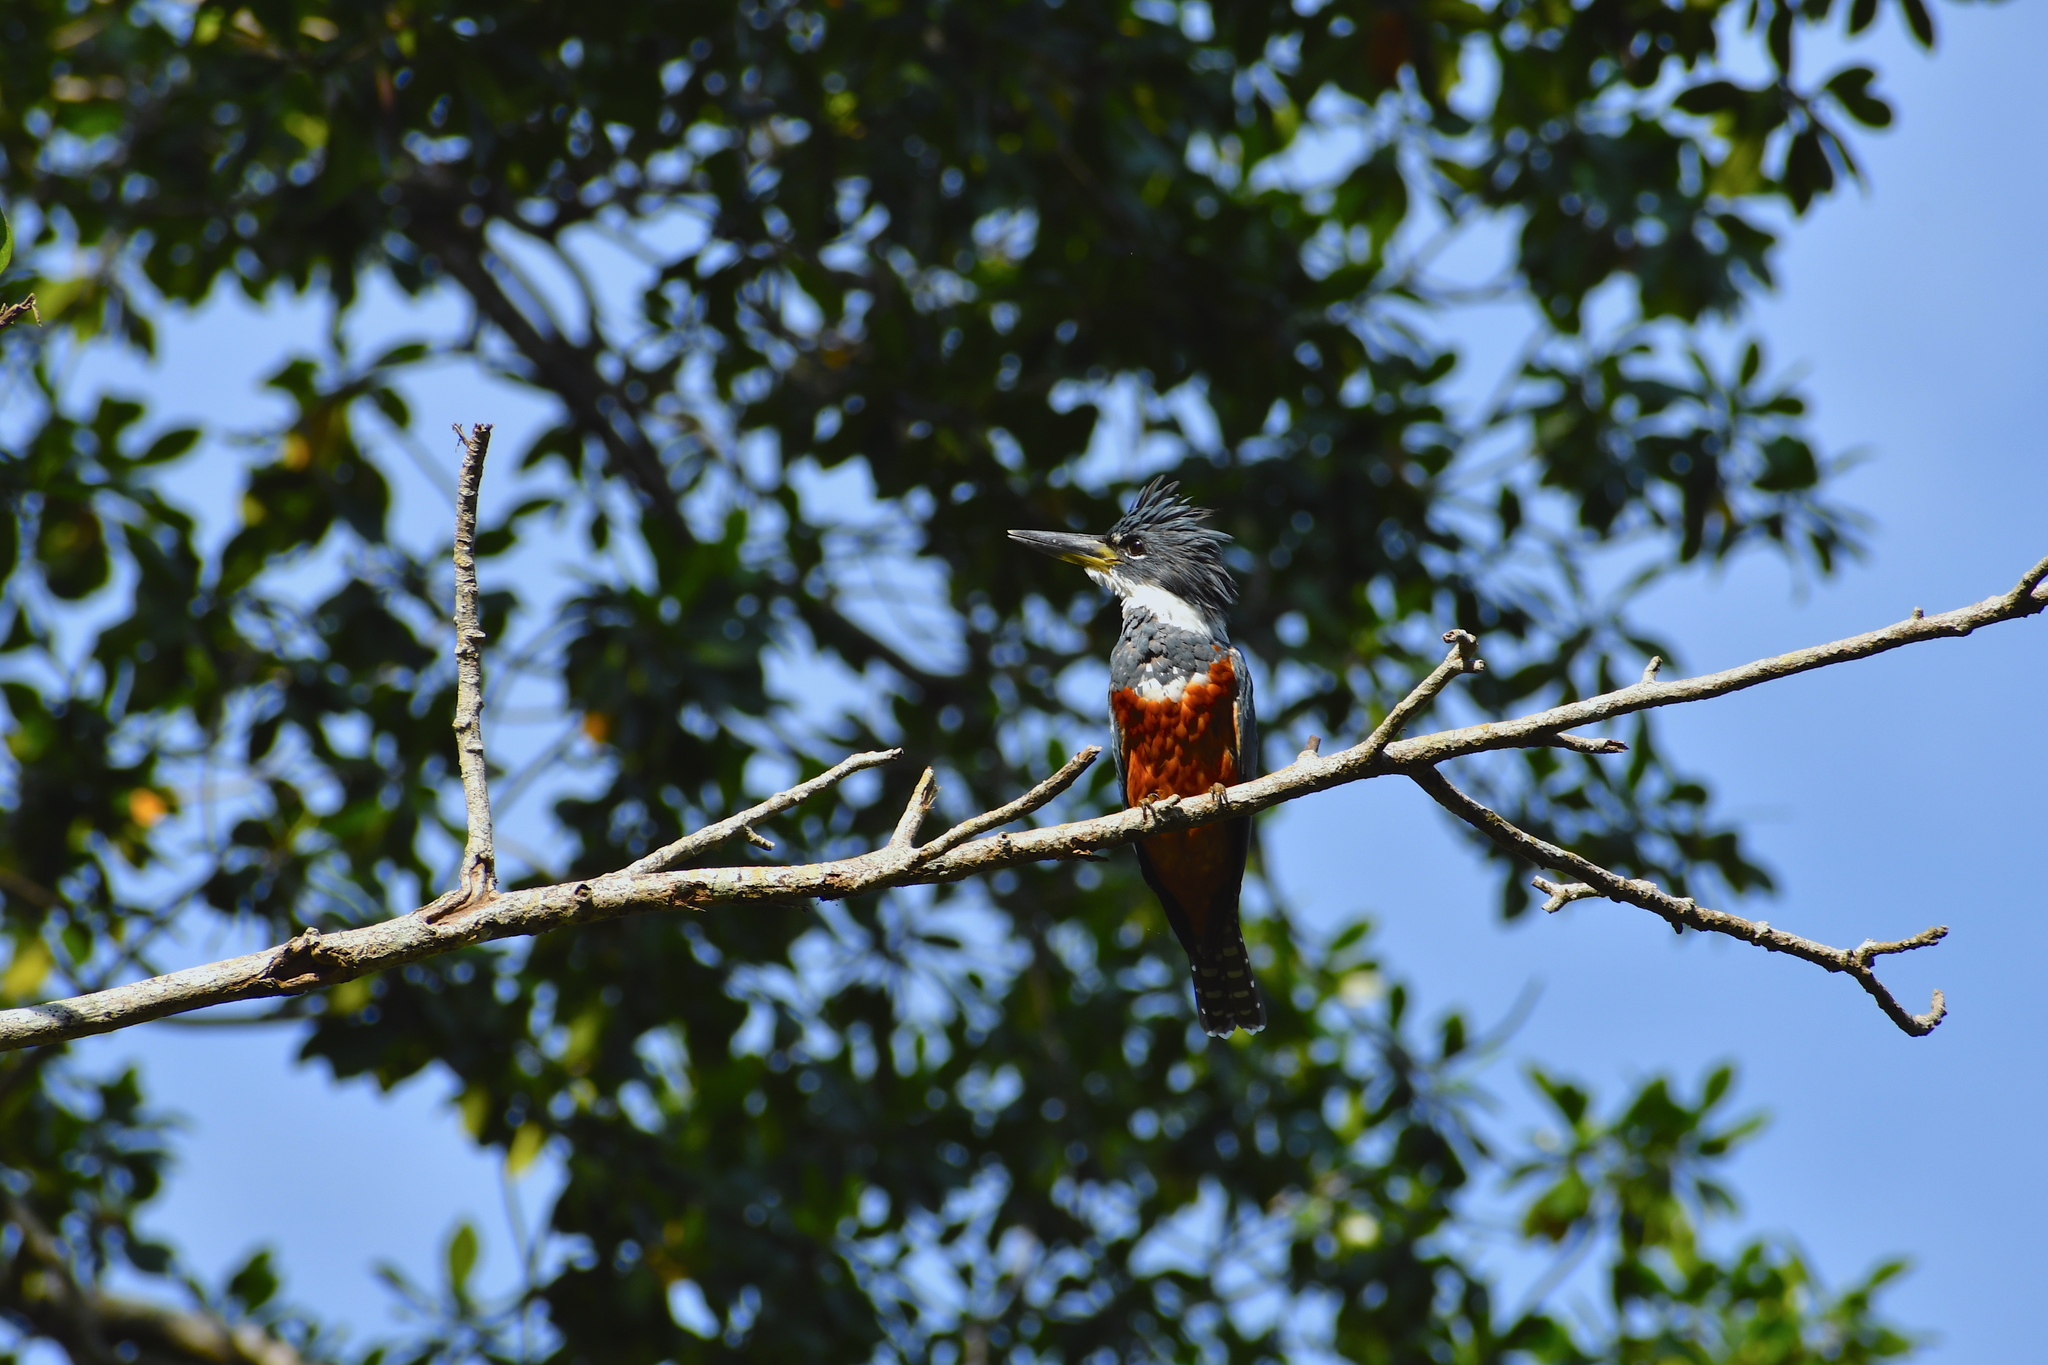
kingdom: Animalia
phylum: Chordata
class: Aves
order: Coraciiformes
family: Alcedinidae
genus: Megaceryle
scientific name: Megaceryle torquata
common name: Ringed kingfisher
